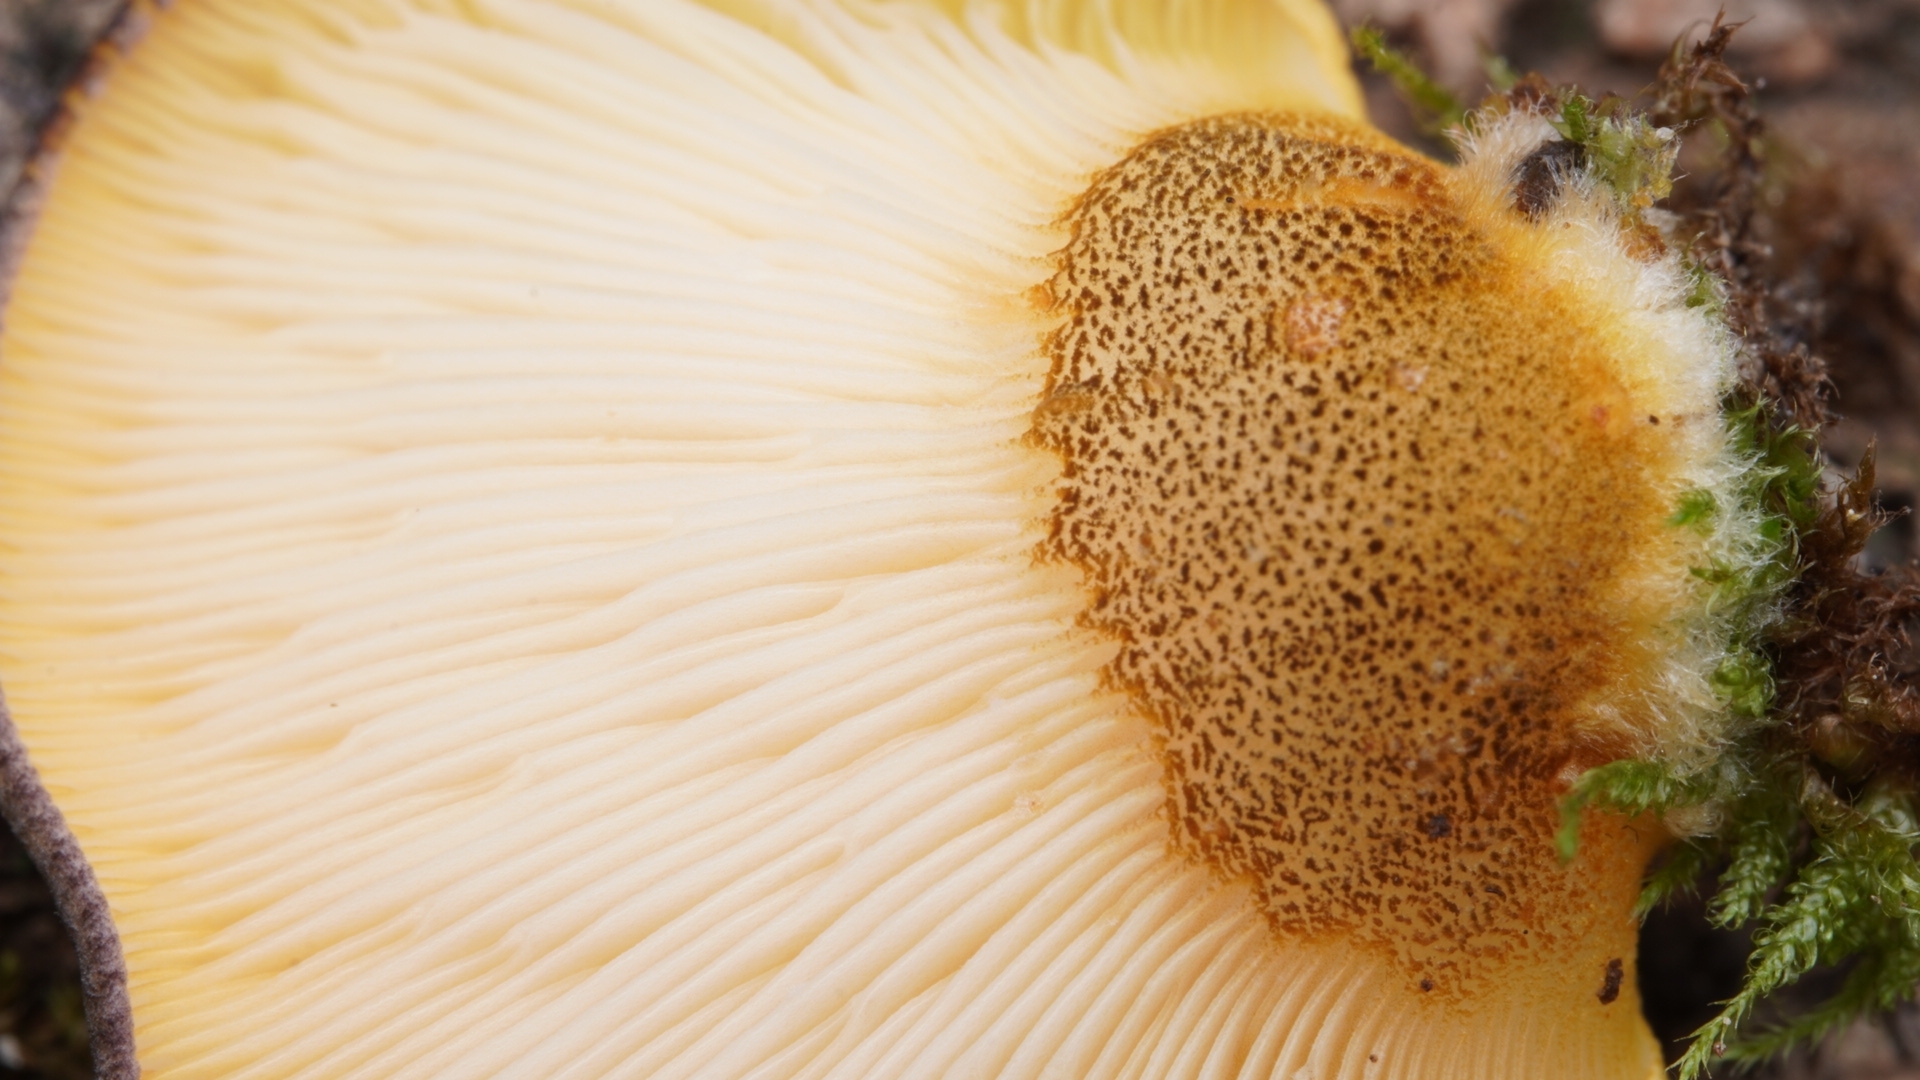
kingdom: Fungi
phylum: Basidiomycota
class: Agaricomycetes
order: Agaricales
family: Sarcomyxaceae
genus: Sarcomyxa
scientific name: Sarcomyxa serotina
